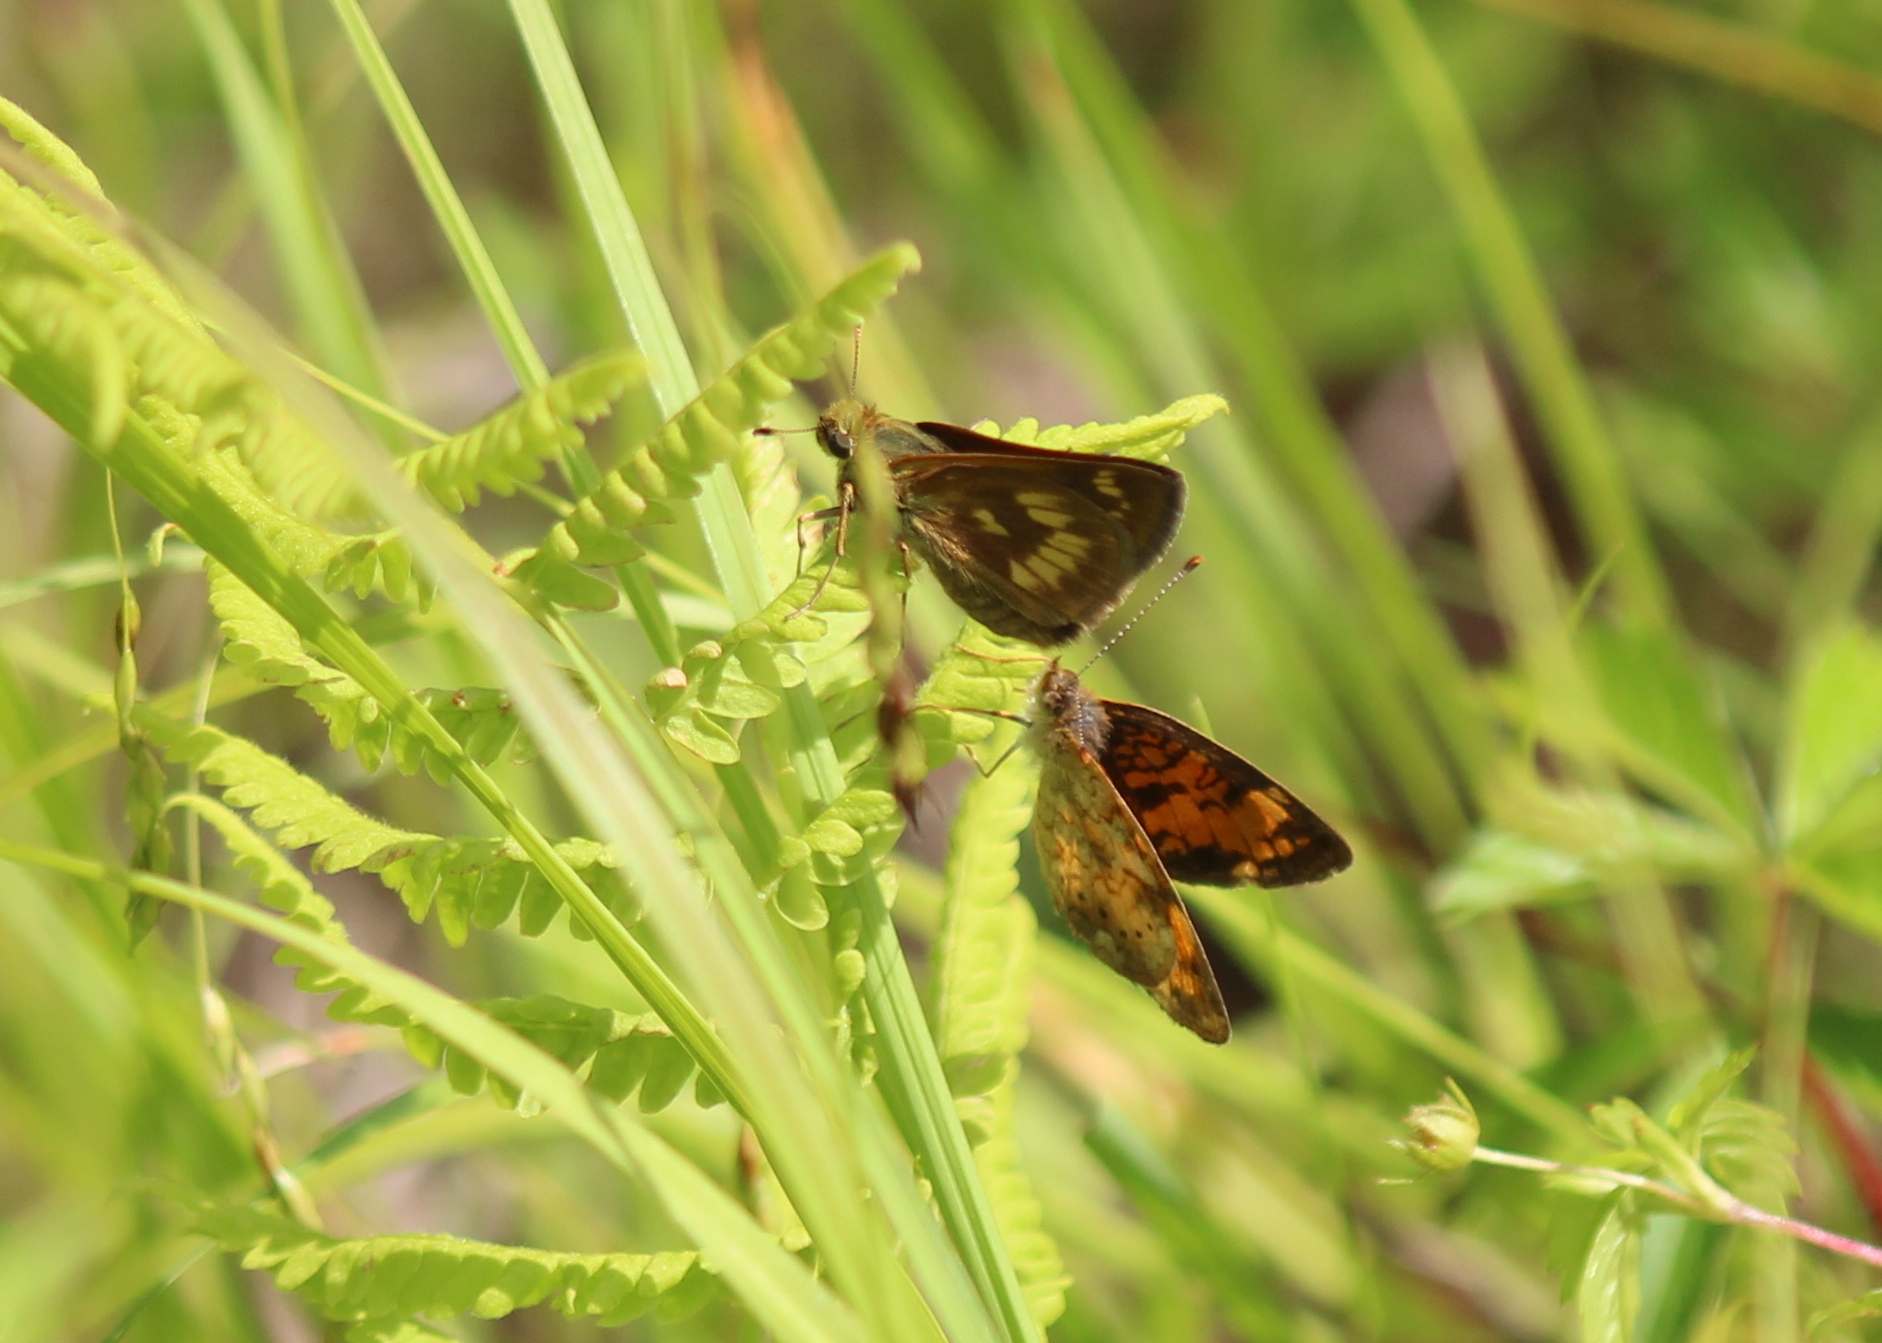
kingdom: Animalia
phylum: Arthropoda
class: Insecta
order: Lepidoptera
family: Hesperiidae
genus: Polites
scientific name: Polites mystic
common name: Long dash
